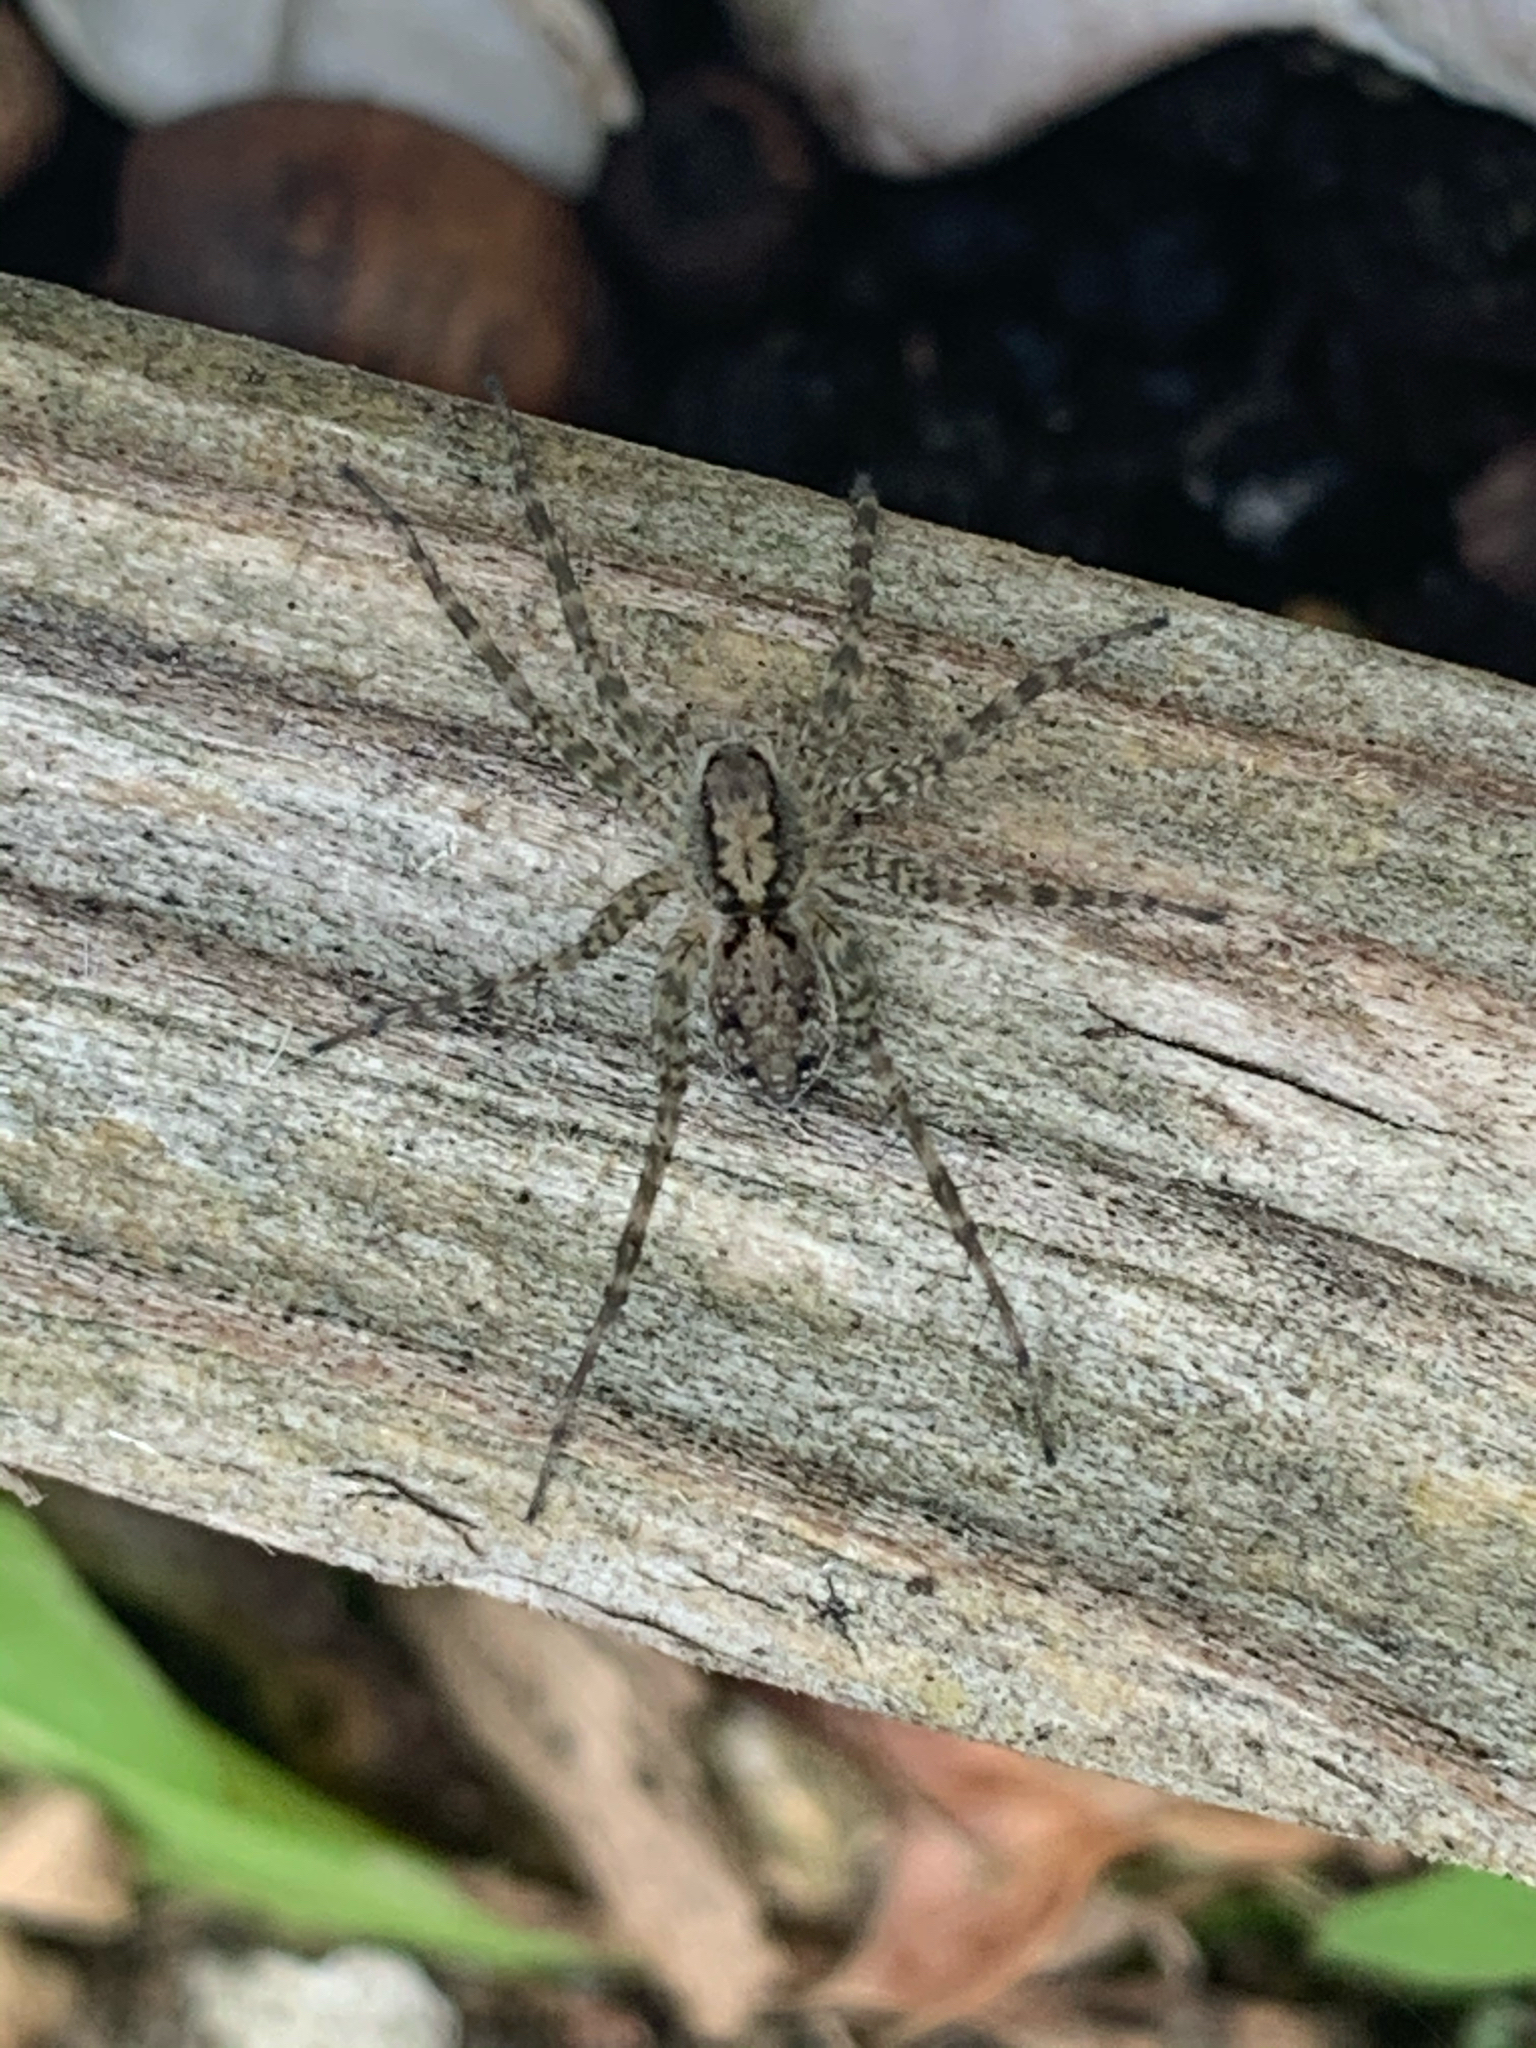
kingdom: Animalia
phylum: Arthropoda
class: Arachnida
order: Araneae
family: Lycosidae
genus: Pardosa
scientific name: Pardosa
